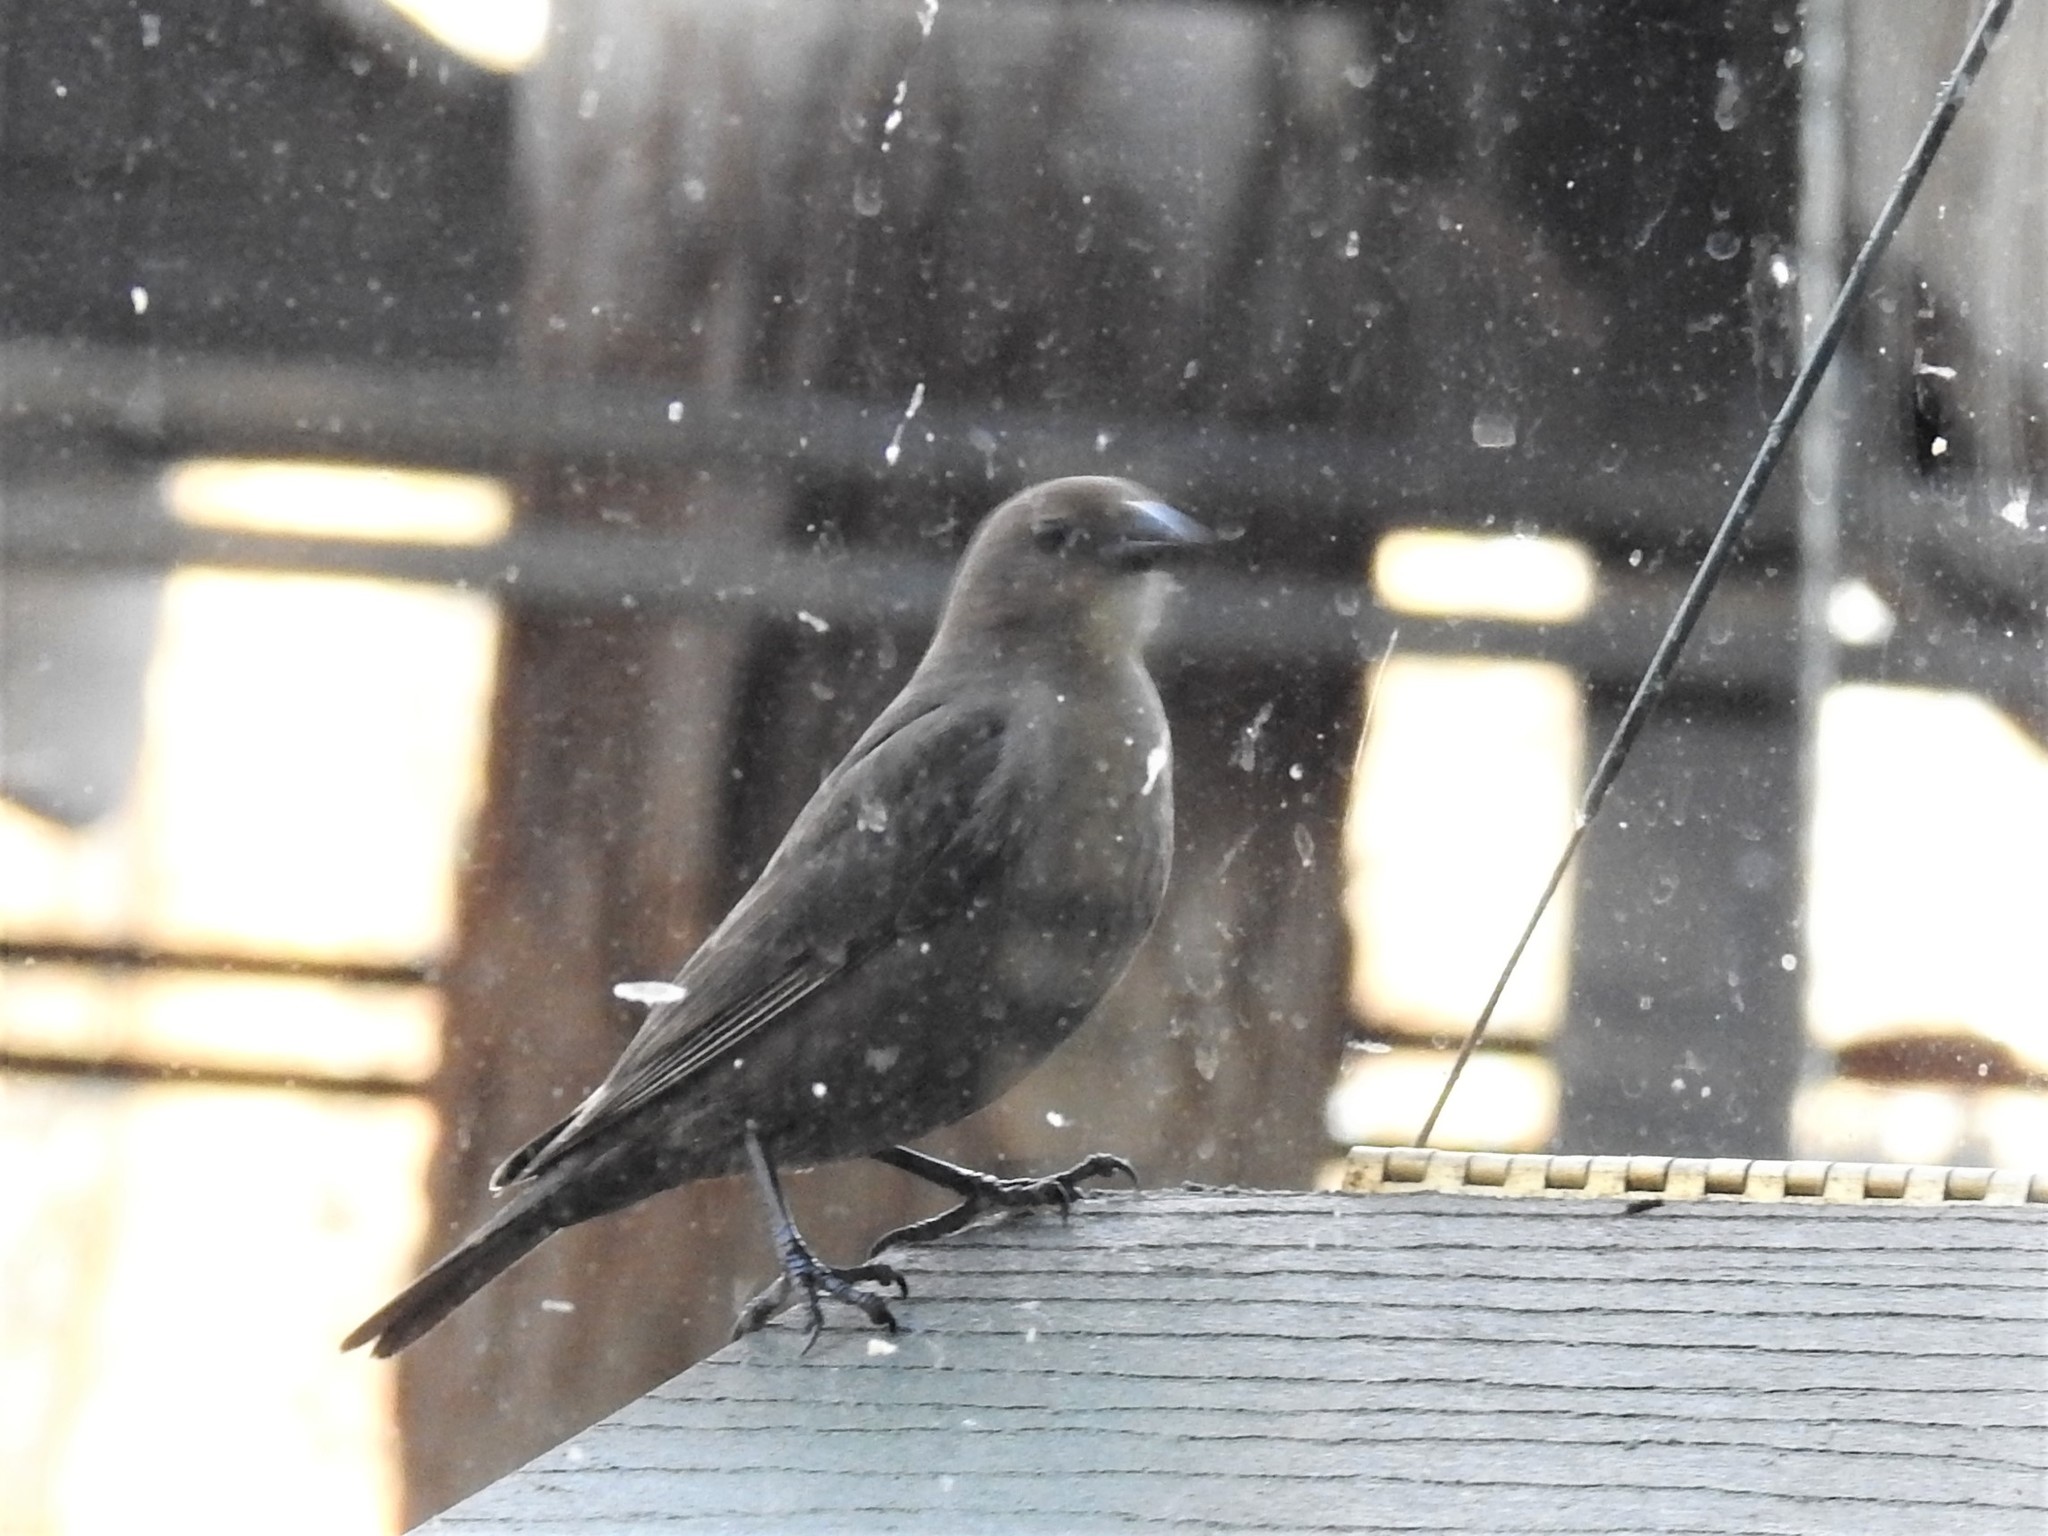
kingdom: Animalia
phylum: Chordata
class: Aves
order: Passeriformes
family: Icteridae
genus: Molothrus
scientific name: Molothrus ater
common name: Brown-headed cowbird
